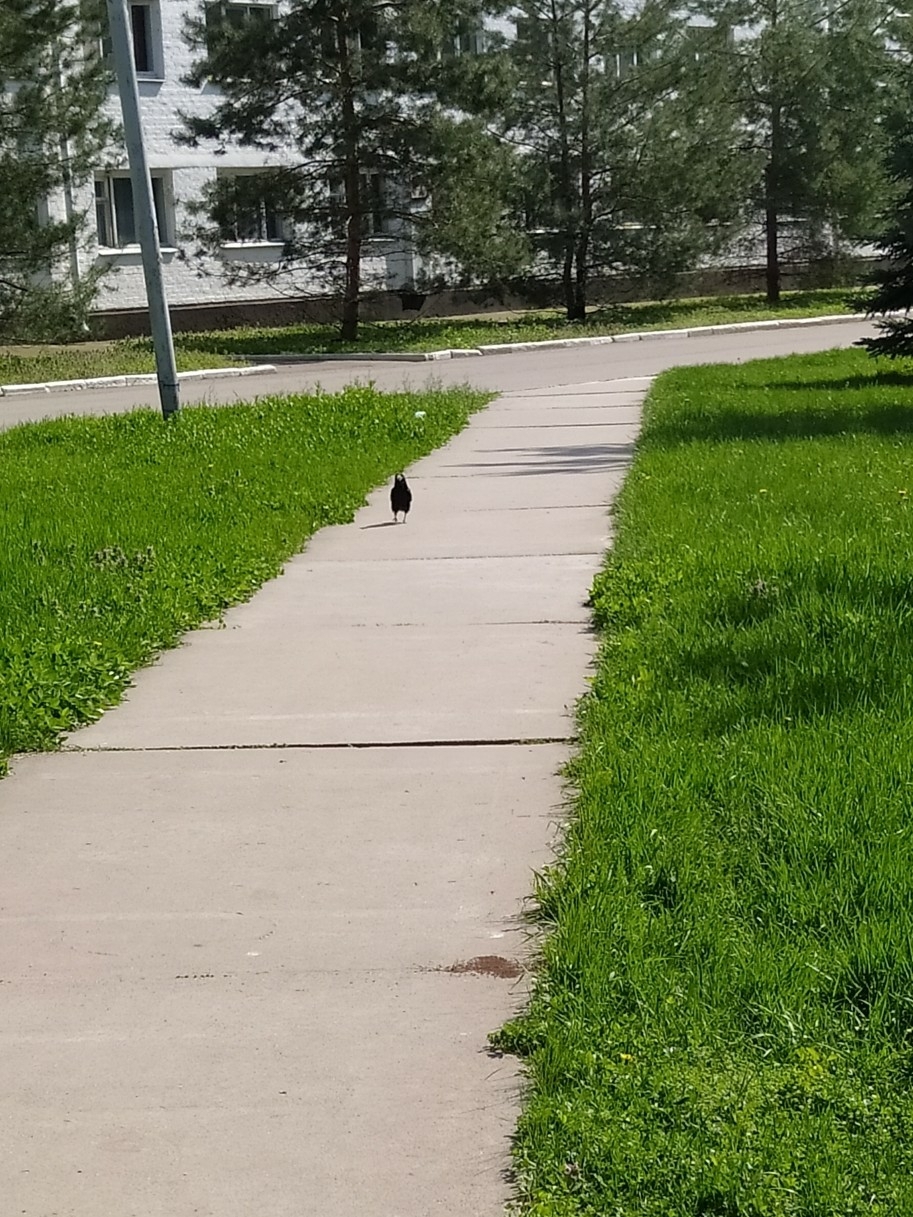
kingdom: Animalia
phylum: Chordata
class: Aves
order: Passeriformes
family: Corvidae
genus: Corvus
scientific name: Corvus frugilegus
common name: Rook
